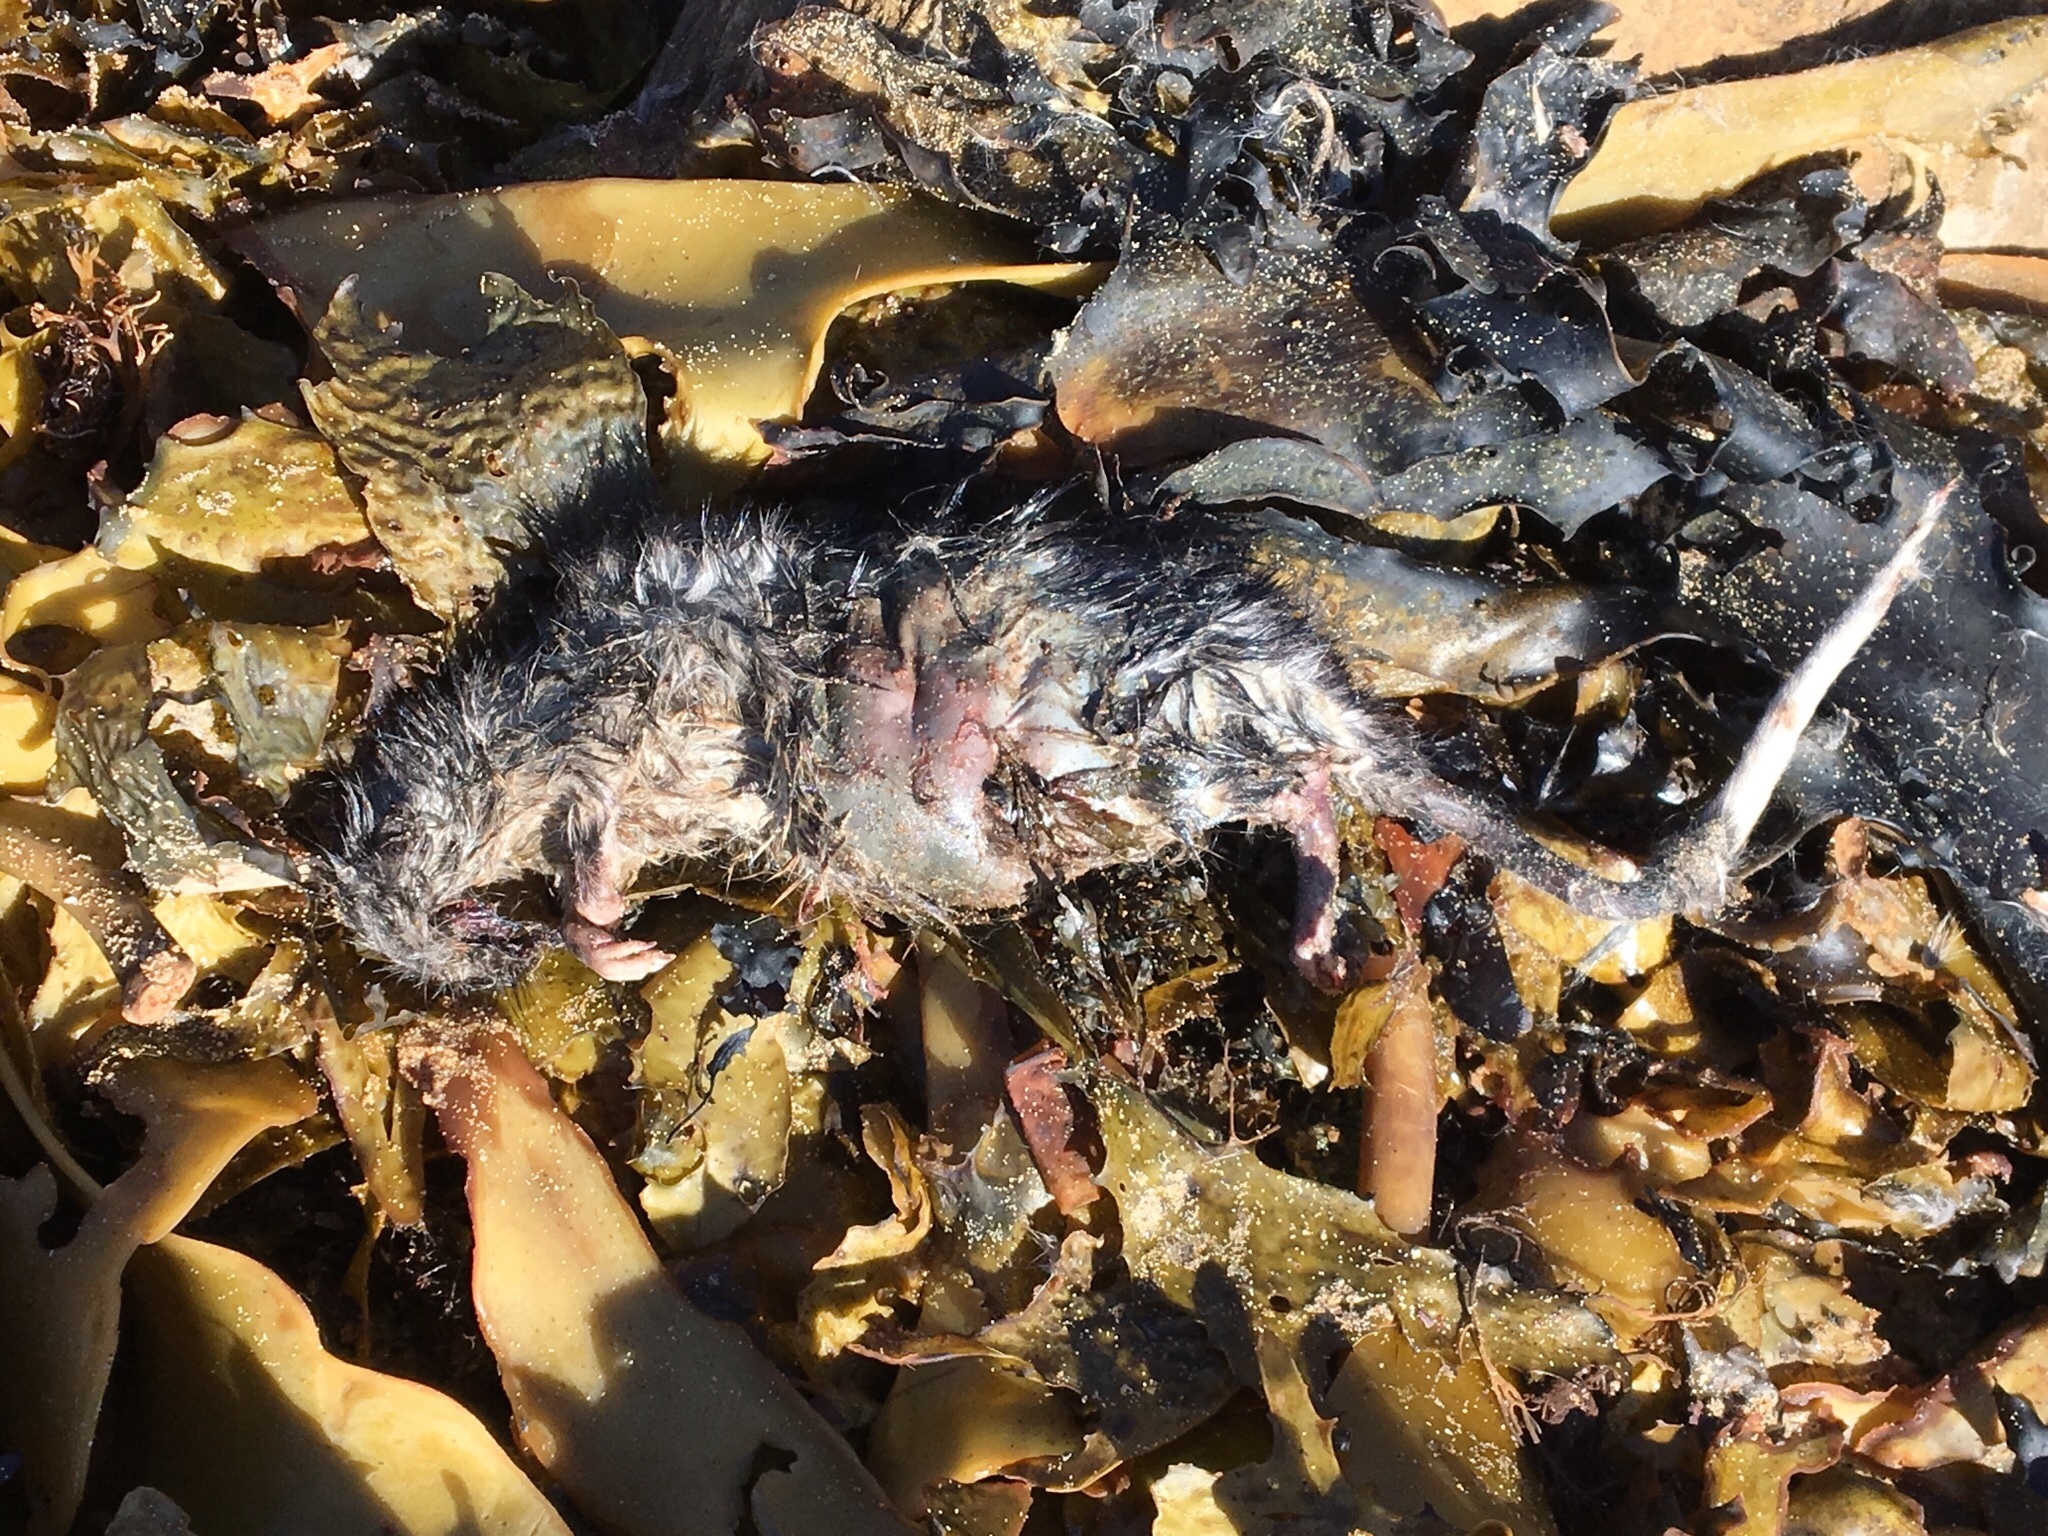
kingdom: Animalia
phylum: Chordata
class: Mammalia
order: Rodentia
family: Muridae
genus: Rattus
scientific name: Rattus rattus
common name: Black rat
